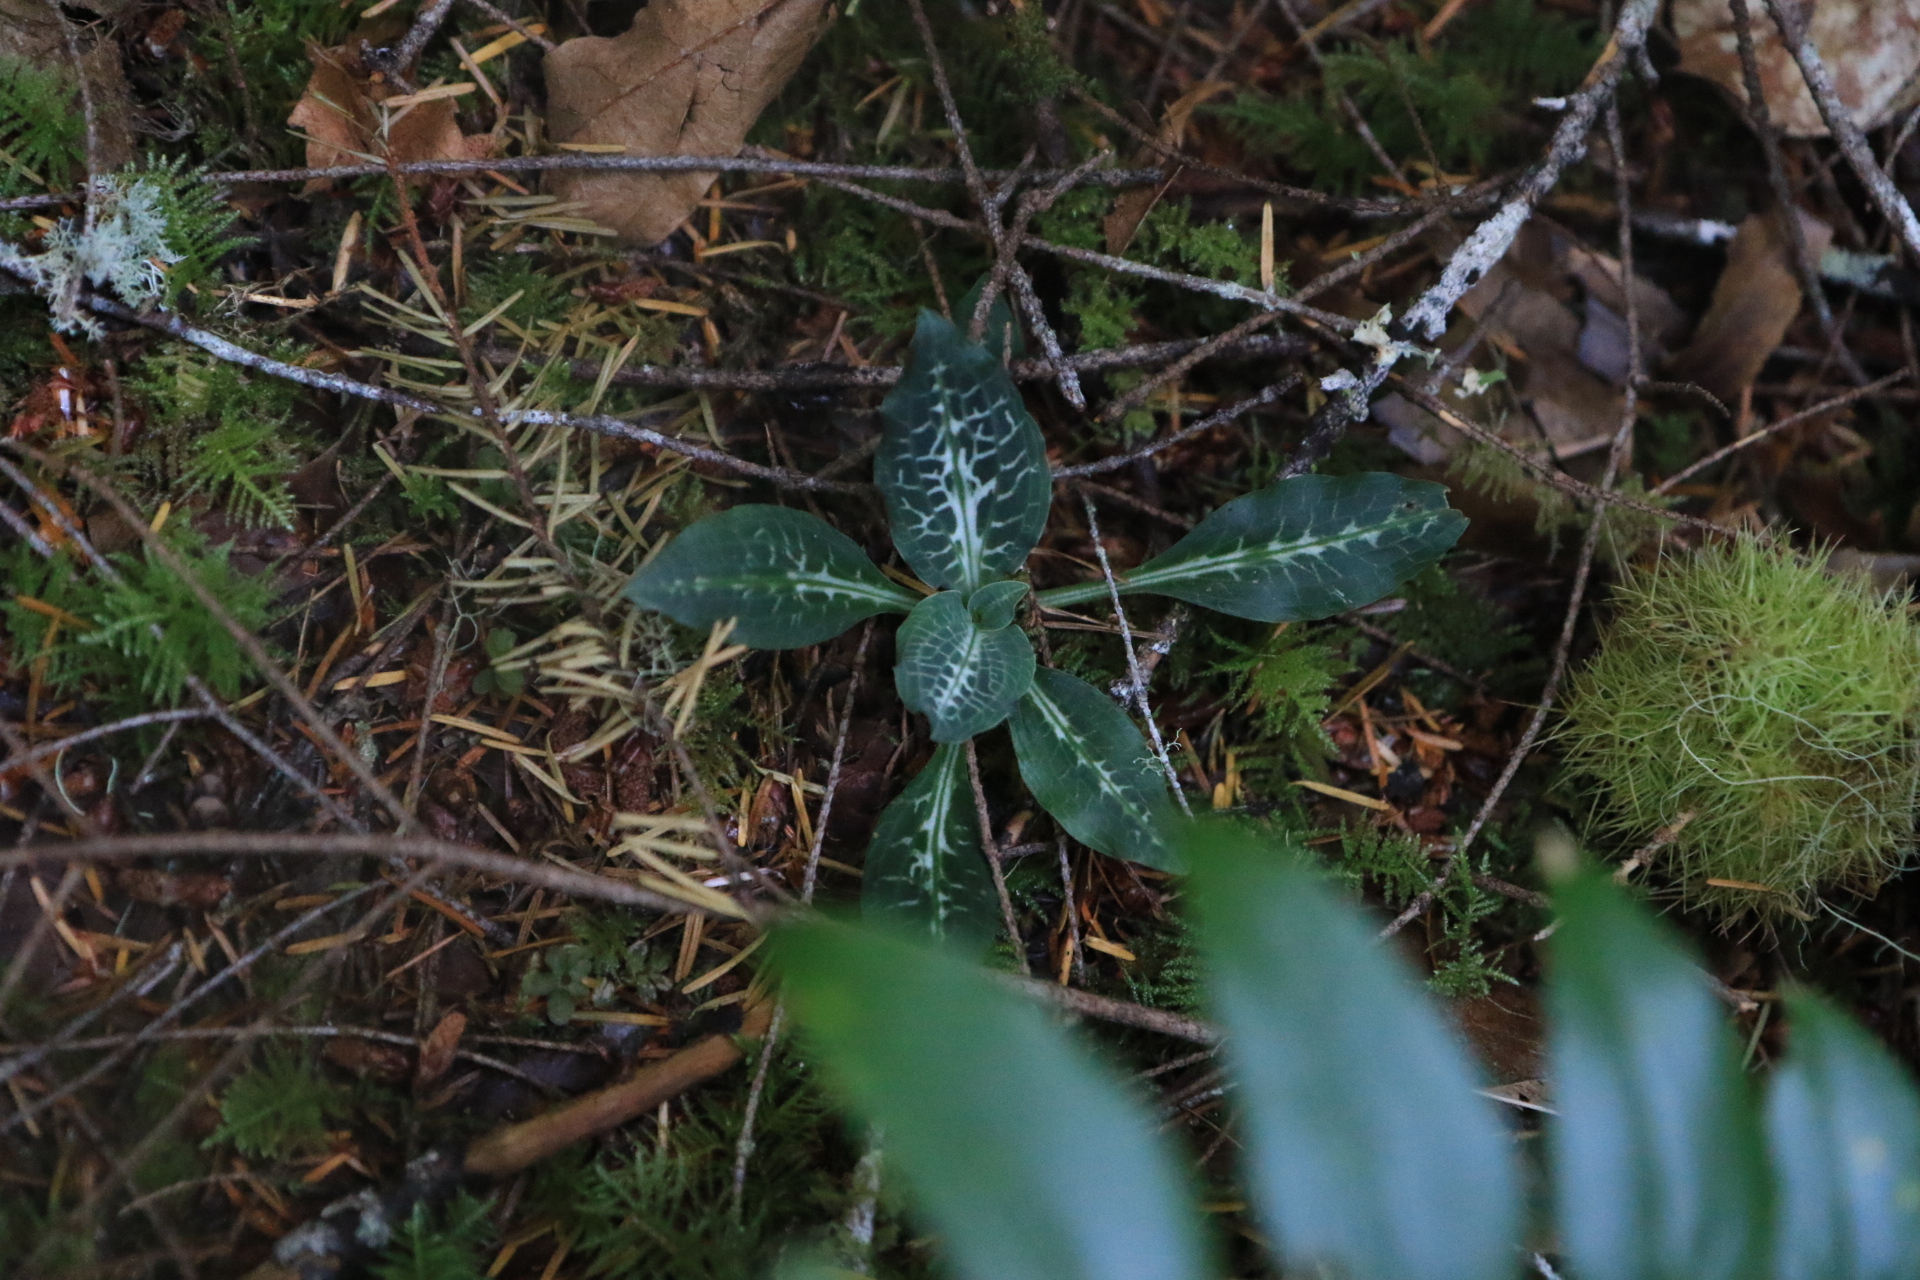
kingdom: Plantae
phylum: Tracheophyta
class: Liliopsida
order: Asparagales
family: Orchidaceae
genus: Goodyera
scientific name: Goodyera oblongifolia
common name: Giant rattlesnake-plantain
